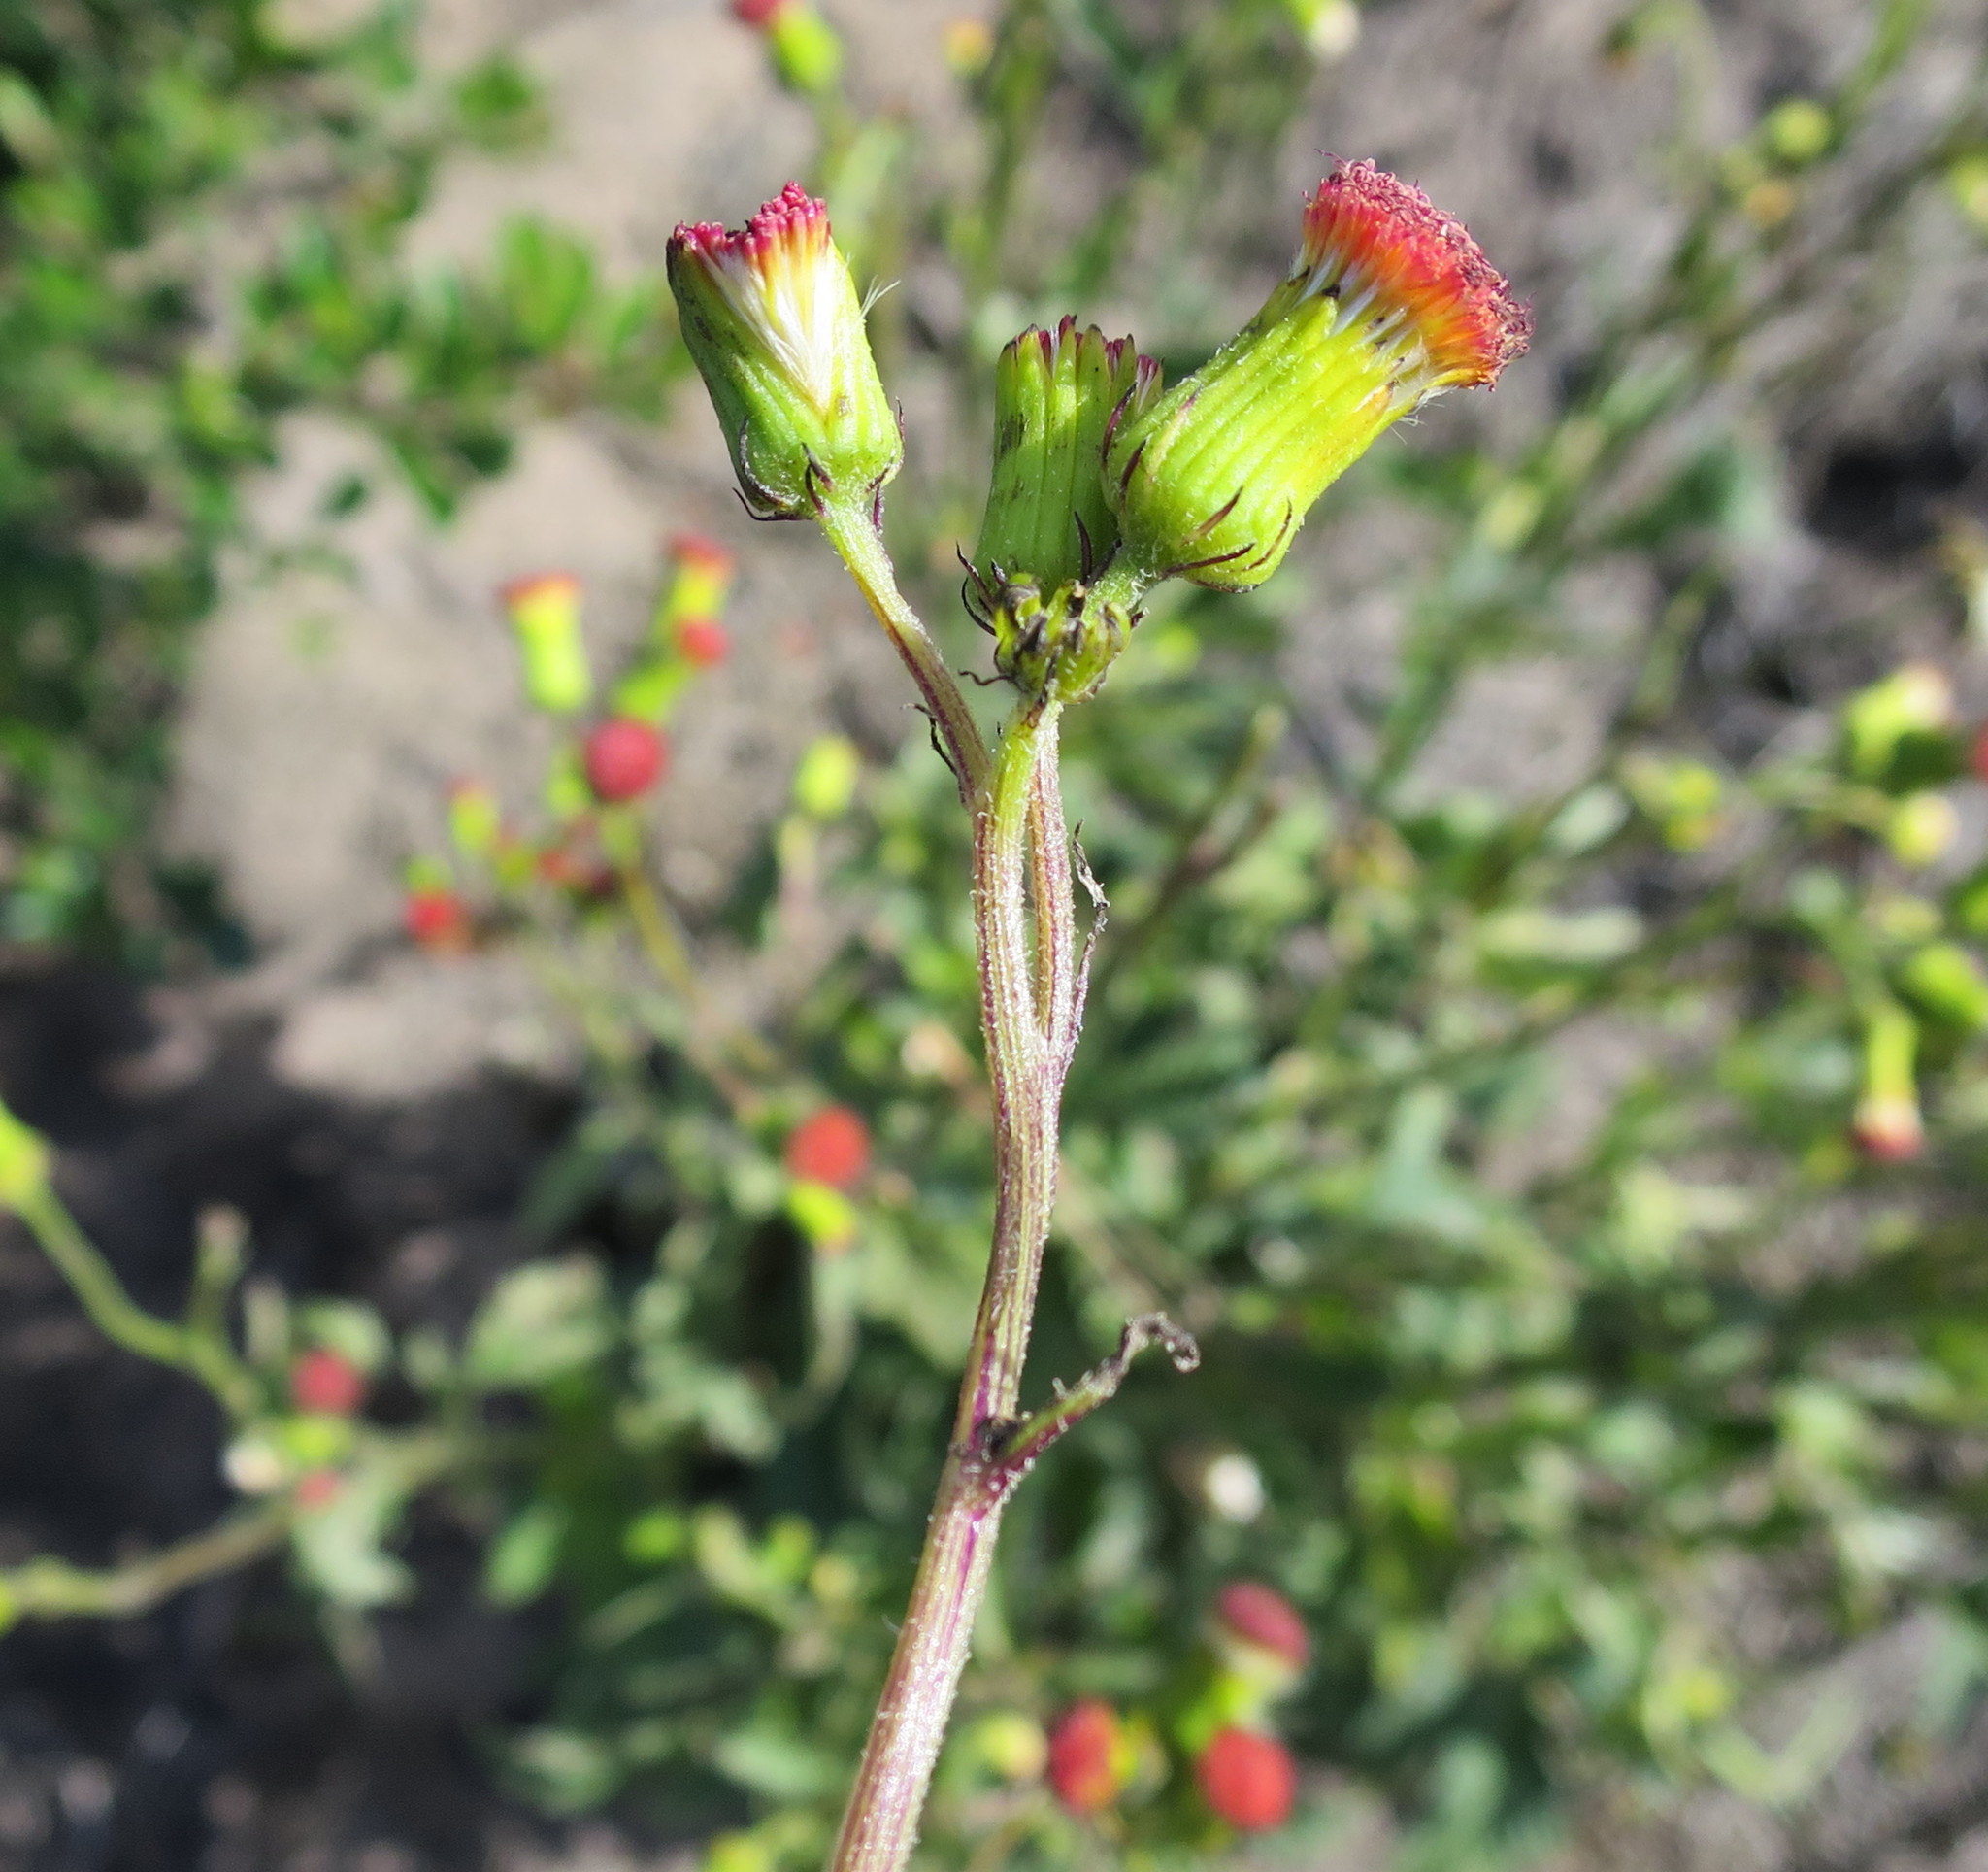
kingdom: Plantae
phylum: Tracheophyta
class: Magnoliopsida
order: Asterales
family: Asteraceae
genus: Crassocephalum
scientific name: Crassocephalum crepidioides
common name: Redflower ragleaf
